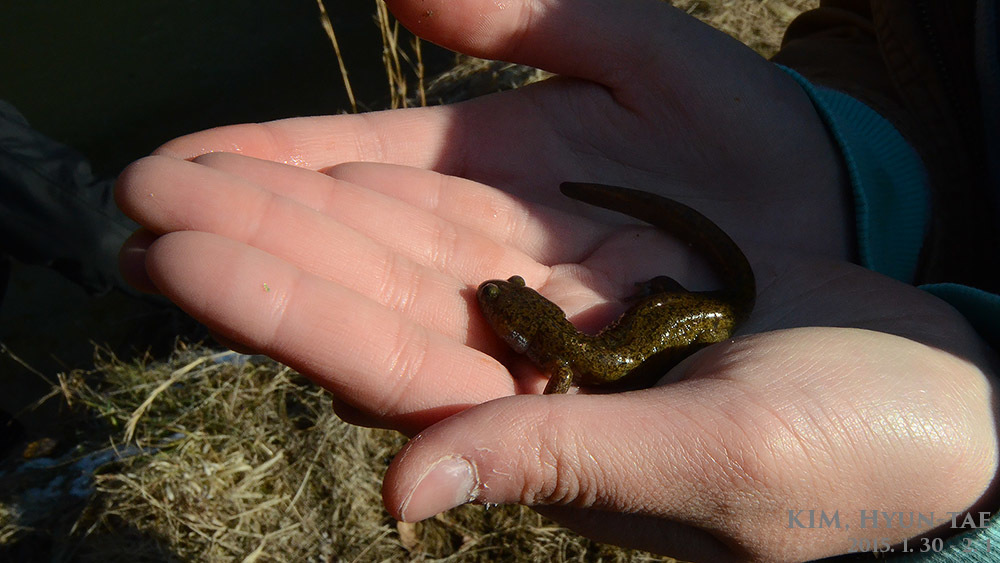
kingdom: Animalia
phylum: Chordata
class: Amphibia
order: Caudata
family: Hynobiidae
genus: Hynobius
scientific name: Hynobius leechii
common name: Gensan salamander
